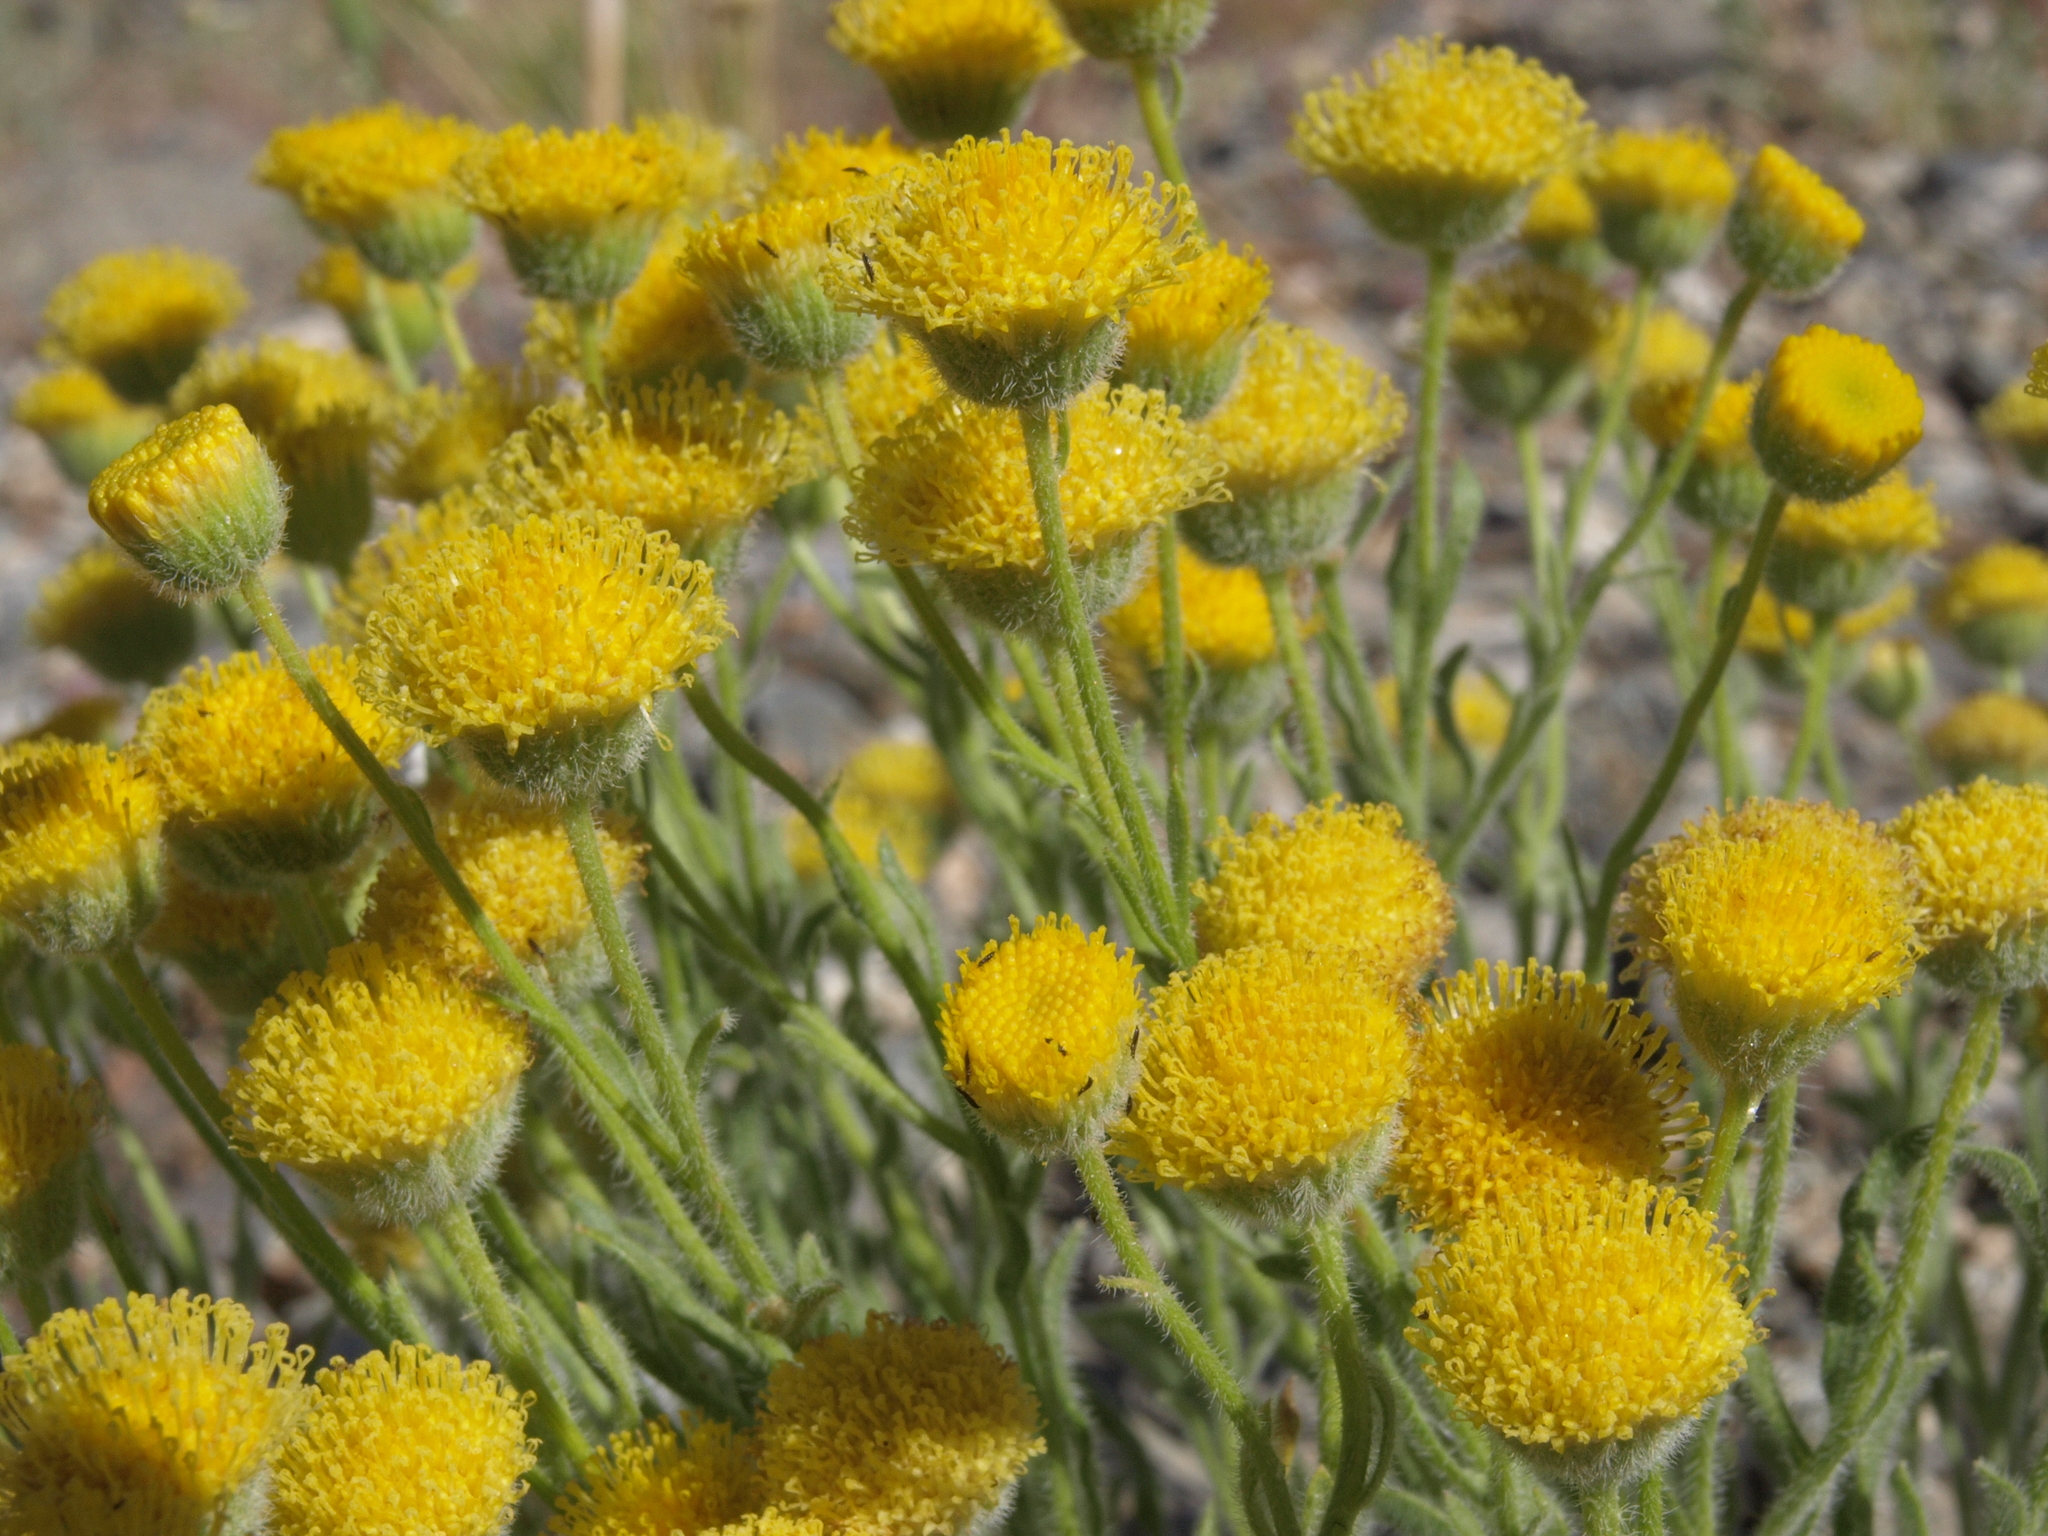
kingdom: Plantae
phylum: Tracheophyta
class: Magnoliopsida
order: Asterales
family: Asteraceae
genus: Erigeron
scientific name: Erigeron aphanactis
